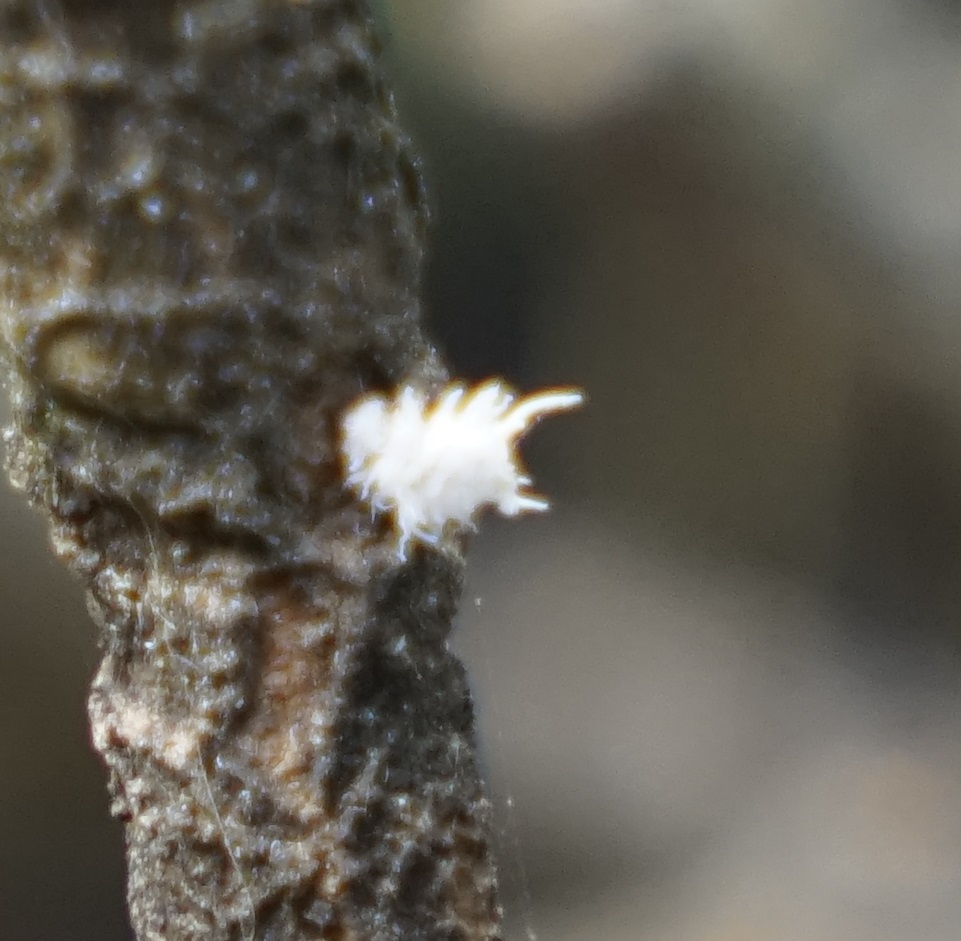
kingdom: Animalia
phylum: Arthropoda
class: Insecta
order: Coleoptera
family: Coccinellidae
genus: Cryptolaemus
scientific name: Cryptolaemus montrouzieri
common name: Mealybug destroyer
